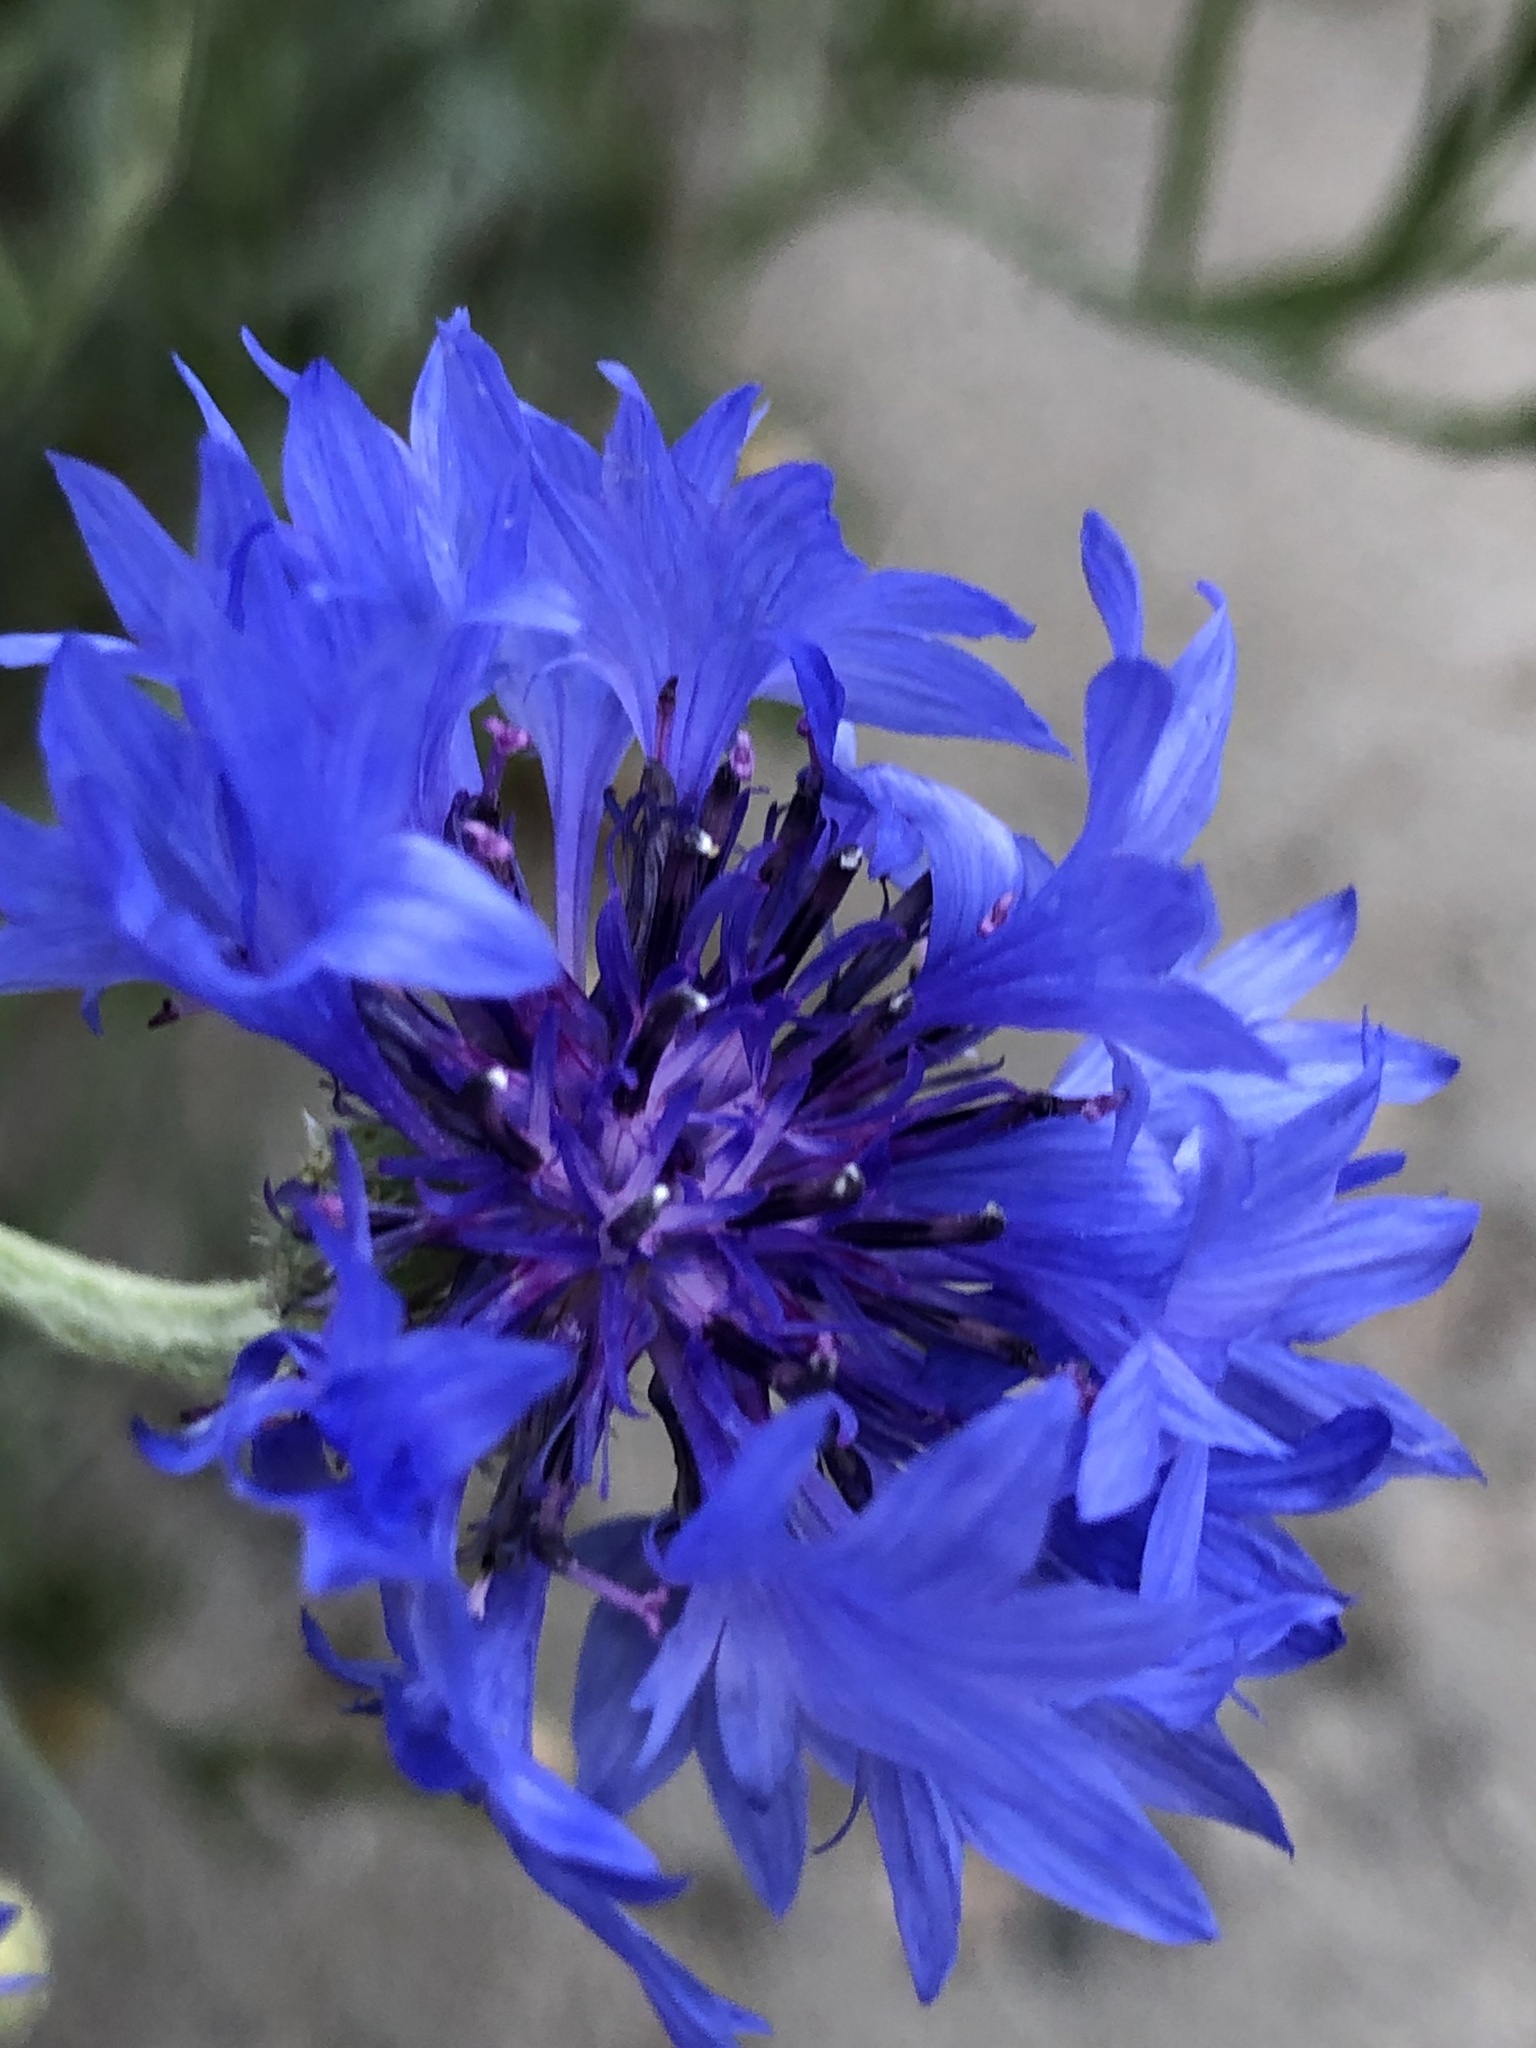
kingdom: Plantae
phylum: Tracheophyta
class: Magnoliopsida
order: Asterales
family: Asteraceae
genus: Centaurea
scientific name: Centaurea cyanus
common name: Cornflower
